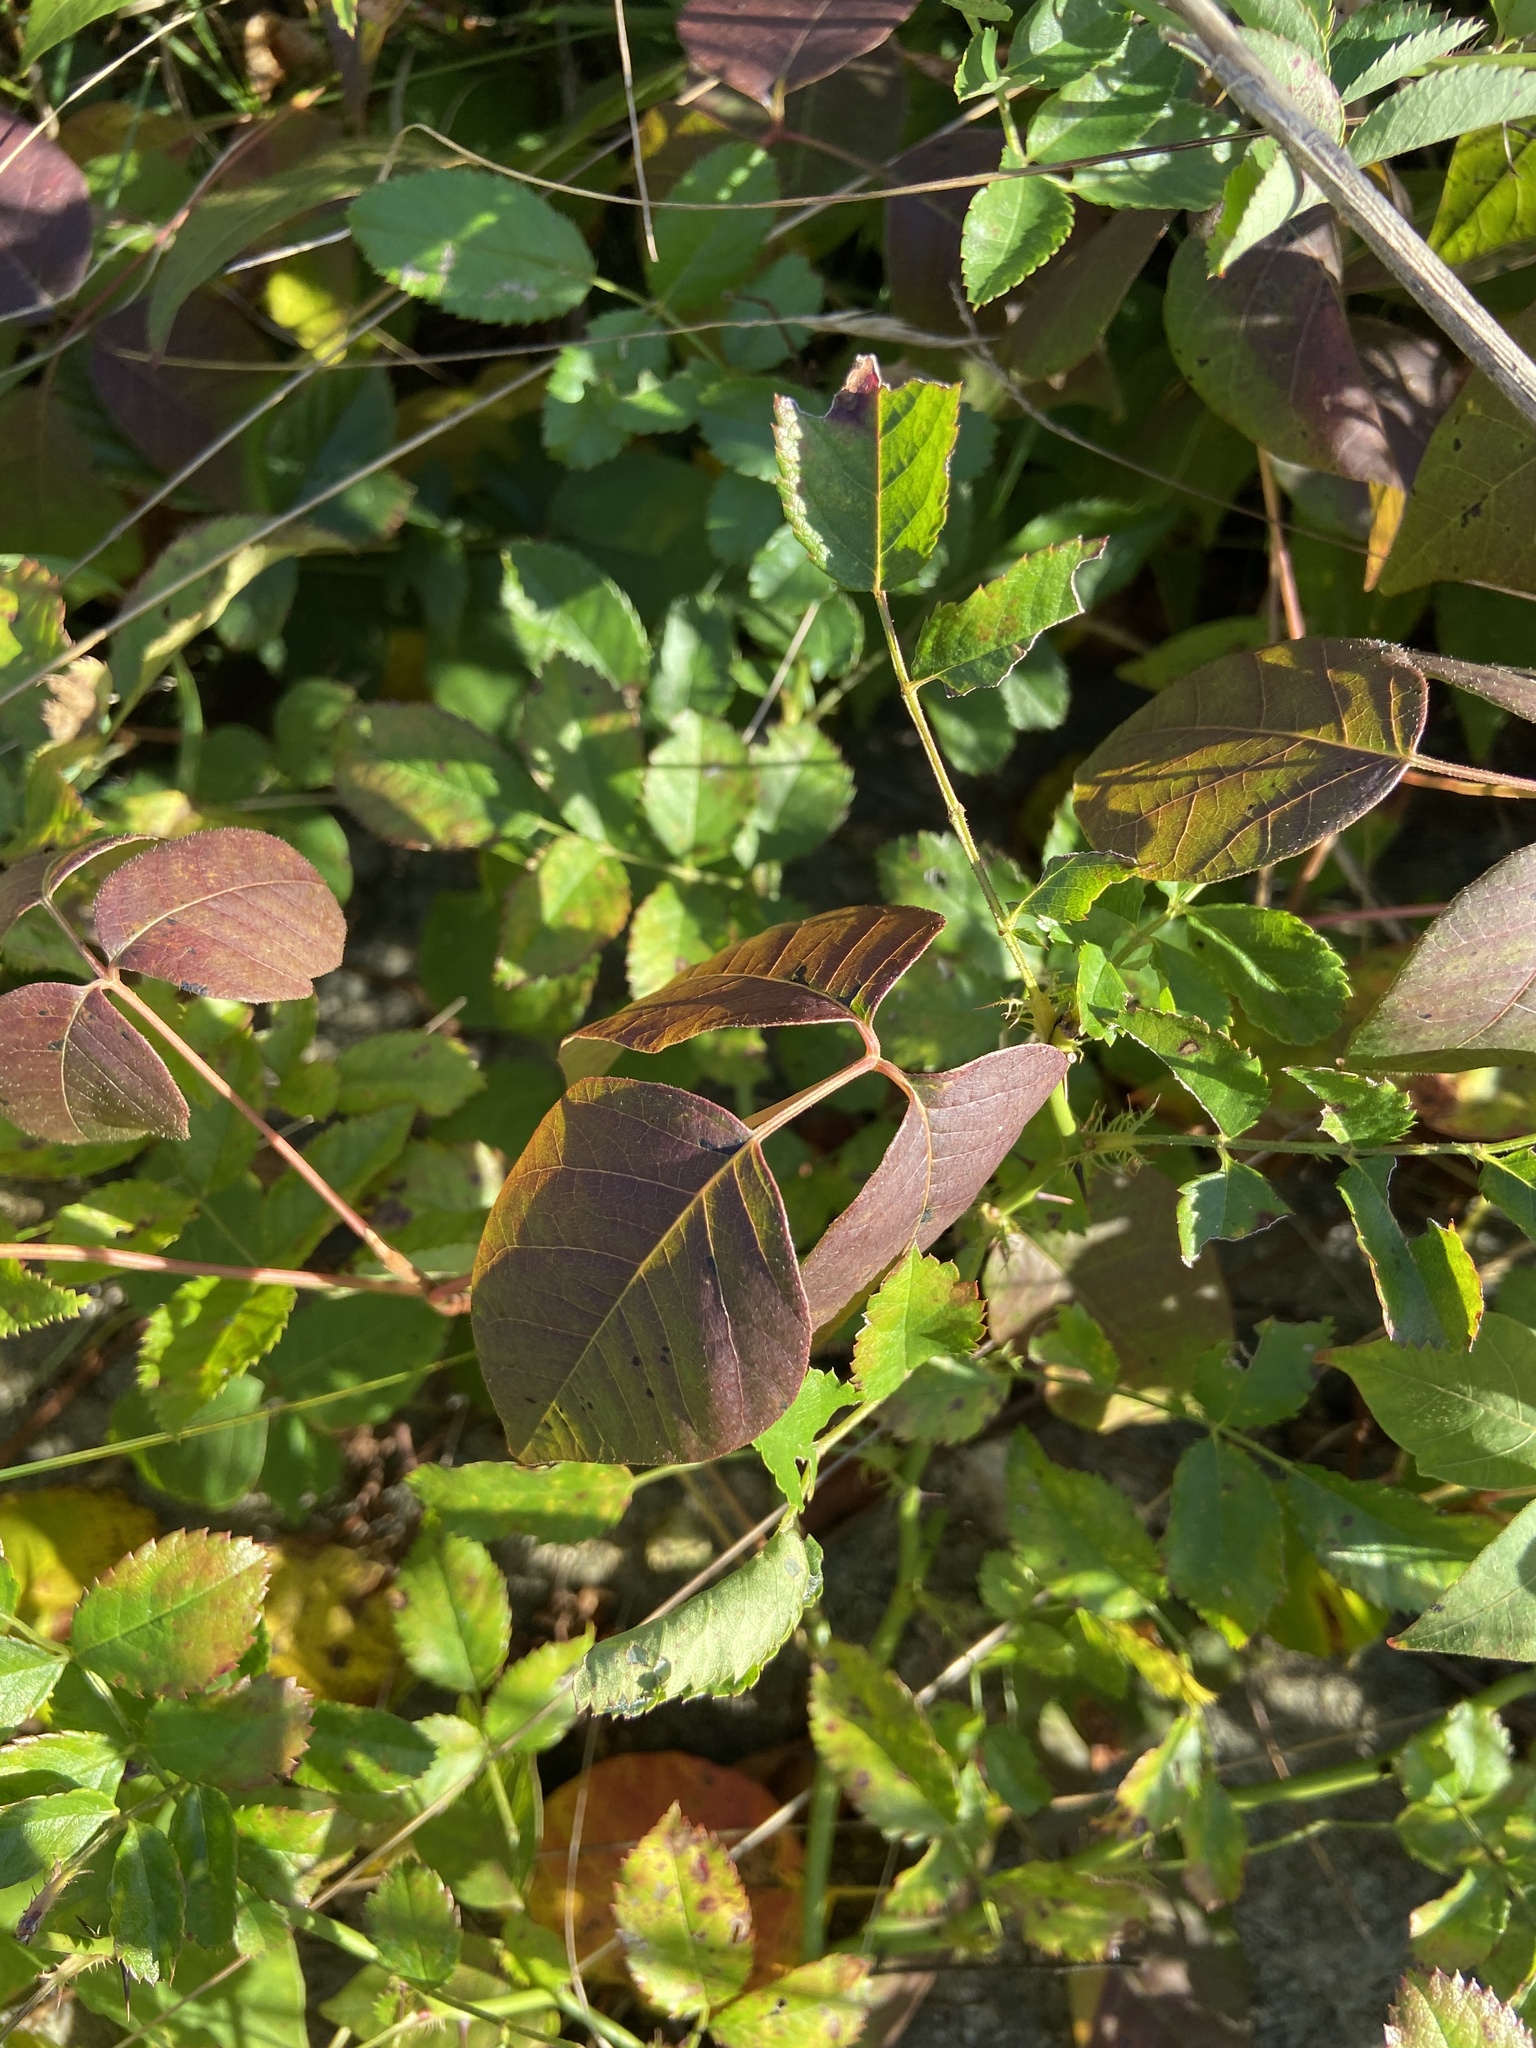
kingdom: Plantae
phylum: Tracheophyta
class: Magnoliopsida
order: Sapindales
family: Anacardiaceae
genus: Toxicodendron
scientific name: Toxicodendron radicans
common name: Poison ivy
